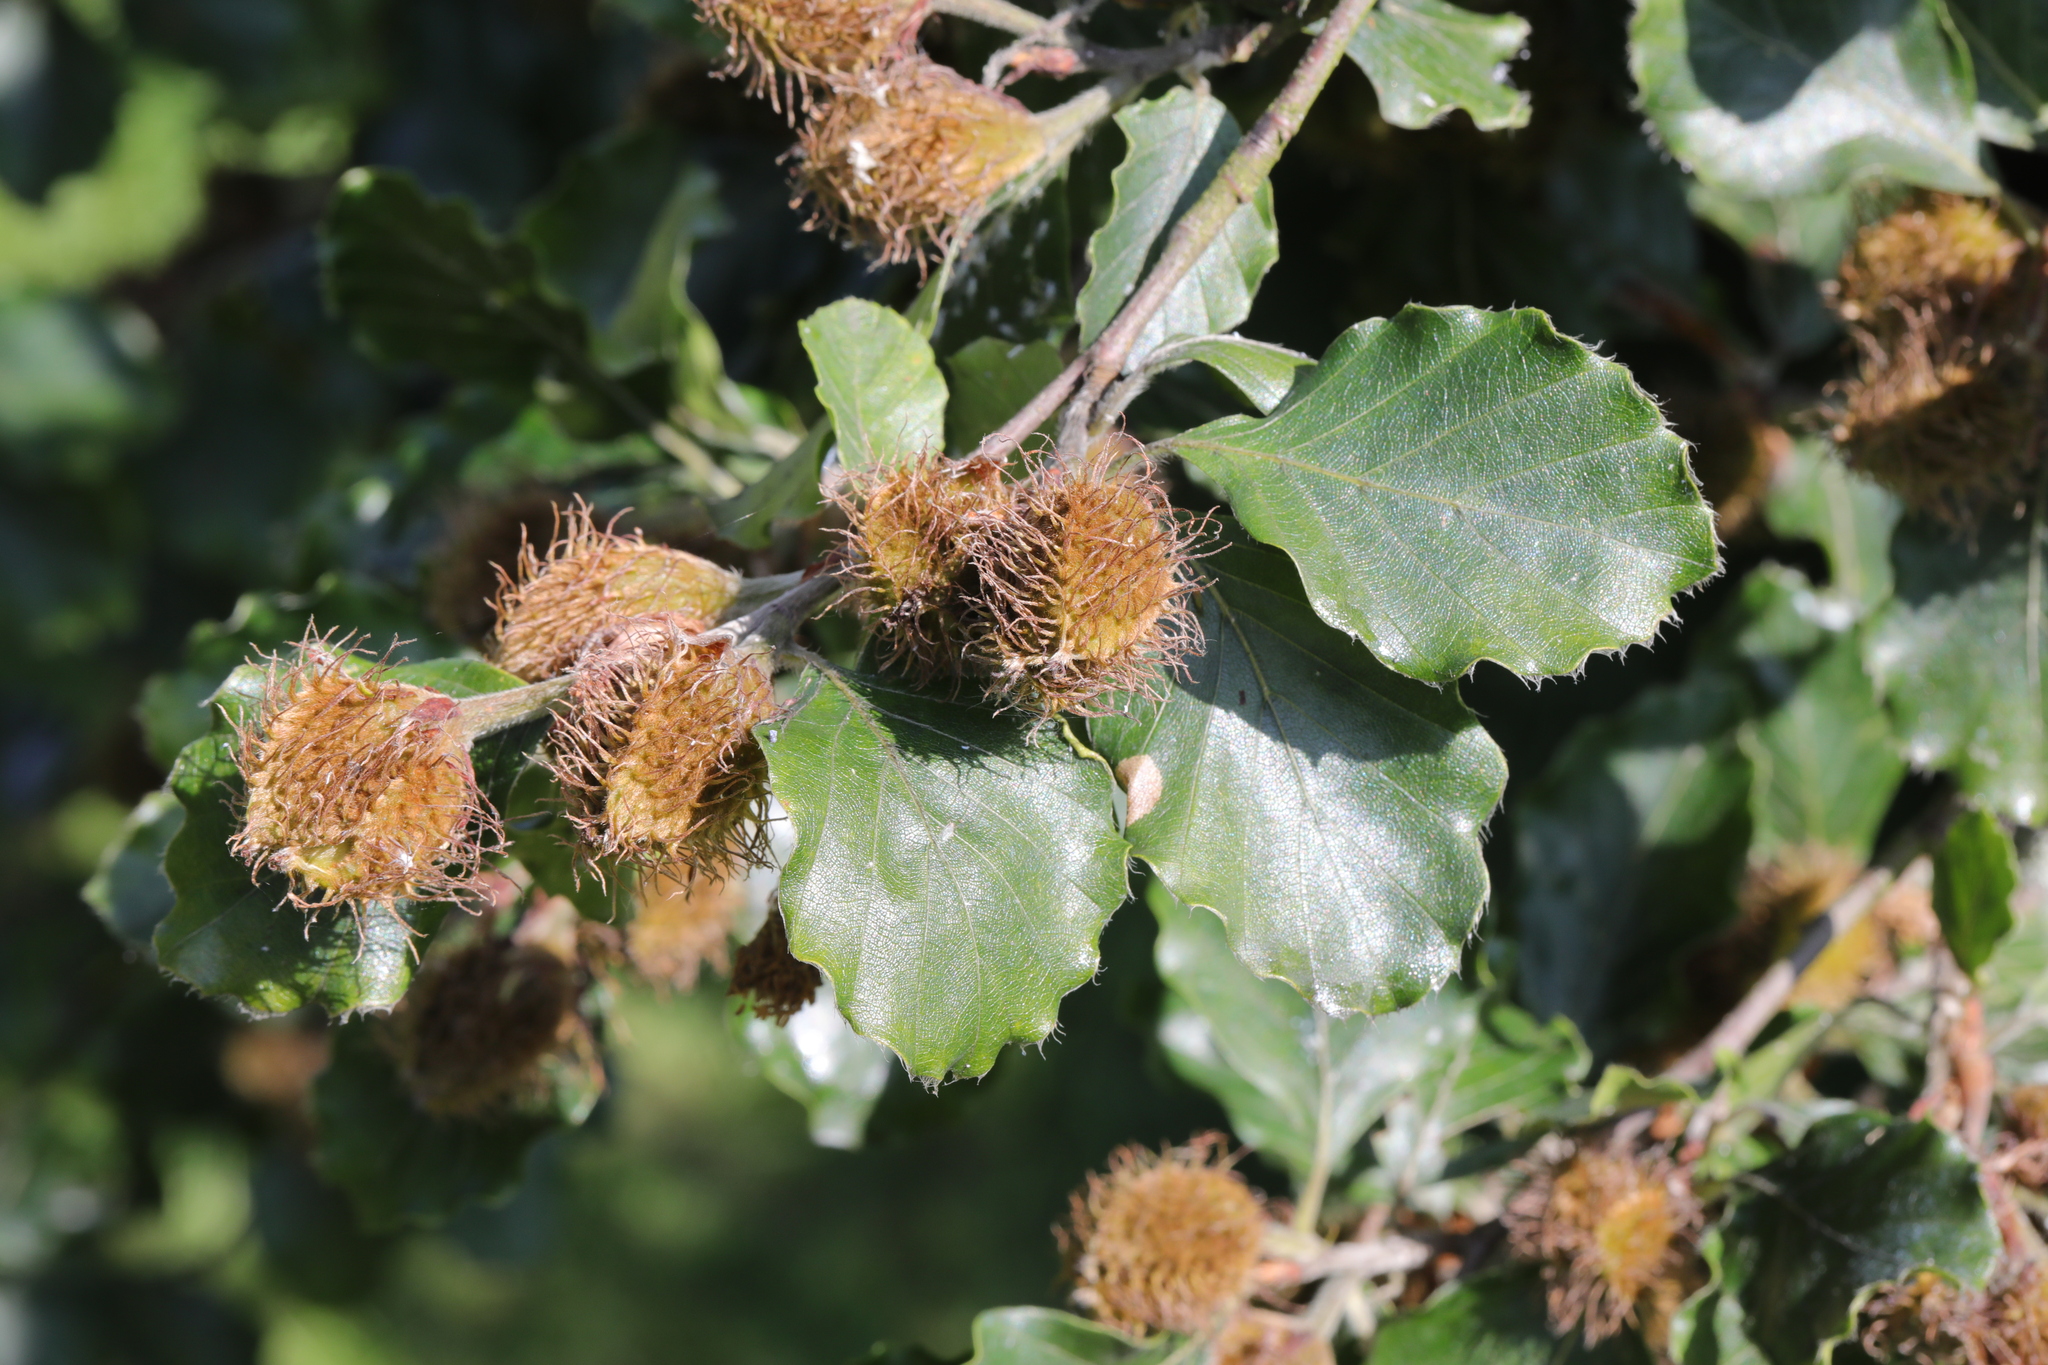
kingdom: Plantae
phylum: Tracheophyta
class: Magnoliopsida
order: Fagales
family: Fagaceae
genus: Fagus
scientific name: Fagus sylvatica
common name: Beech
